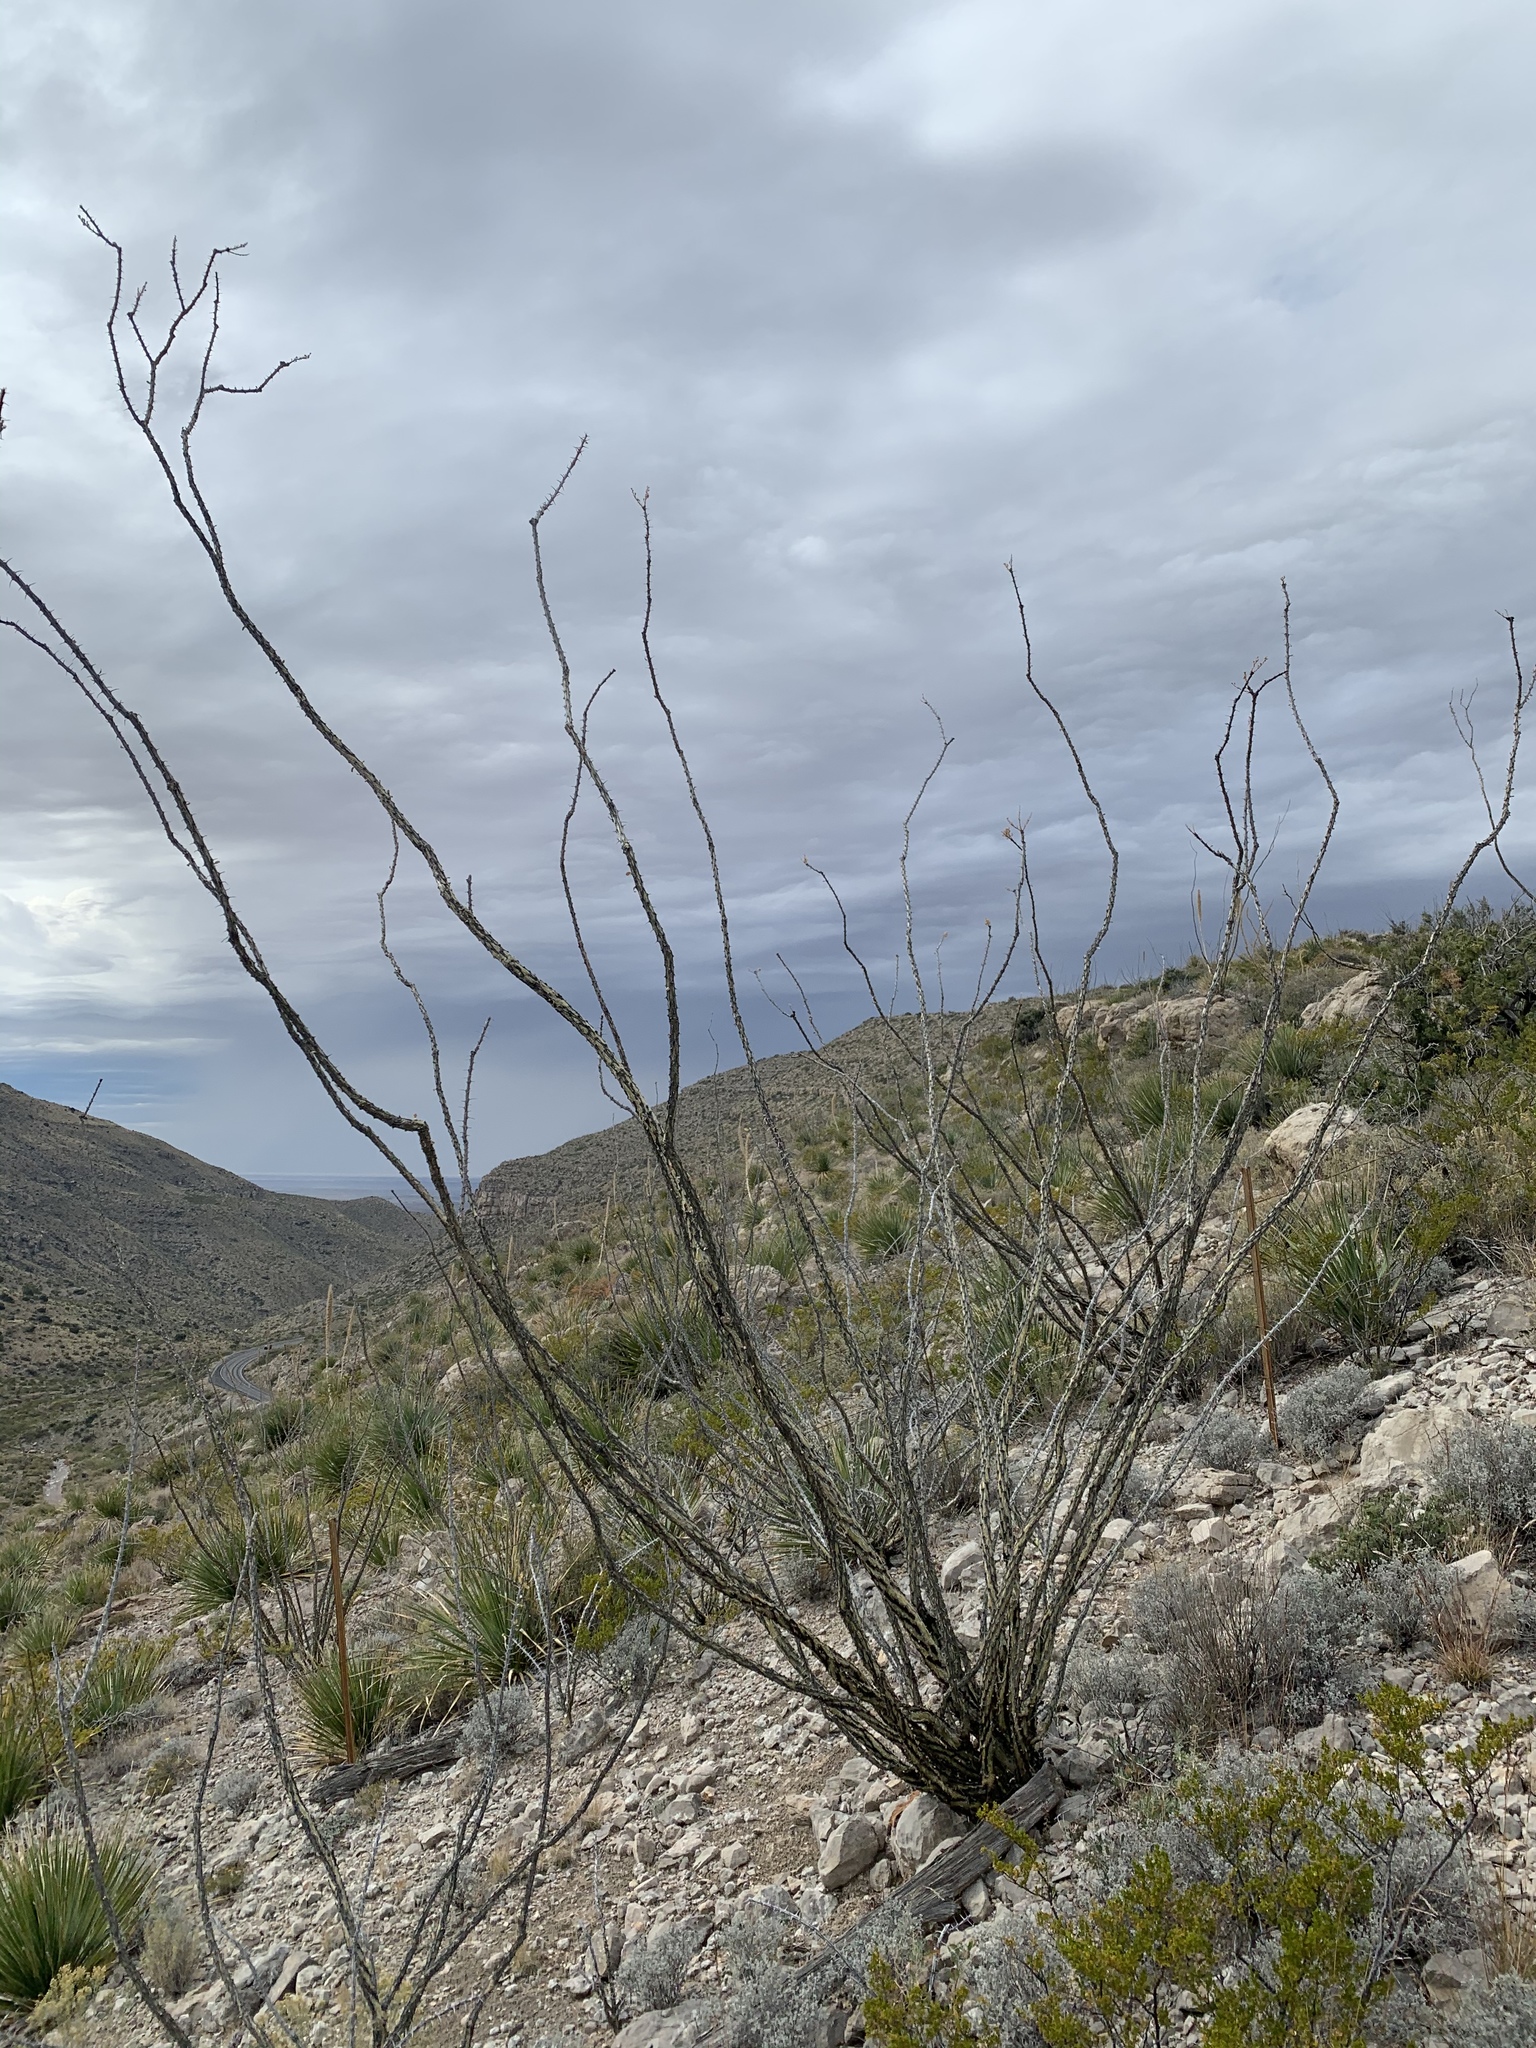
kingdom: Plantae
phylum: Tracheophyta
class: Magnoliopsida
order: Ericales
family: Fouquieriaceae
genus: Fouquieria
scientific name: Fouquieria splendens
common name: Vine-cactus
